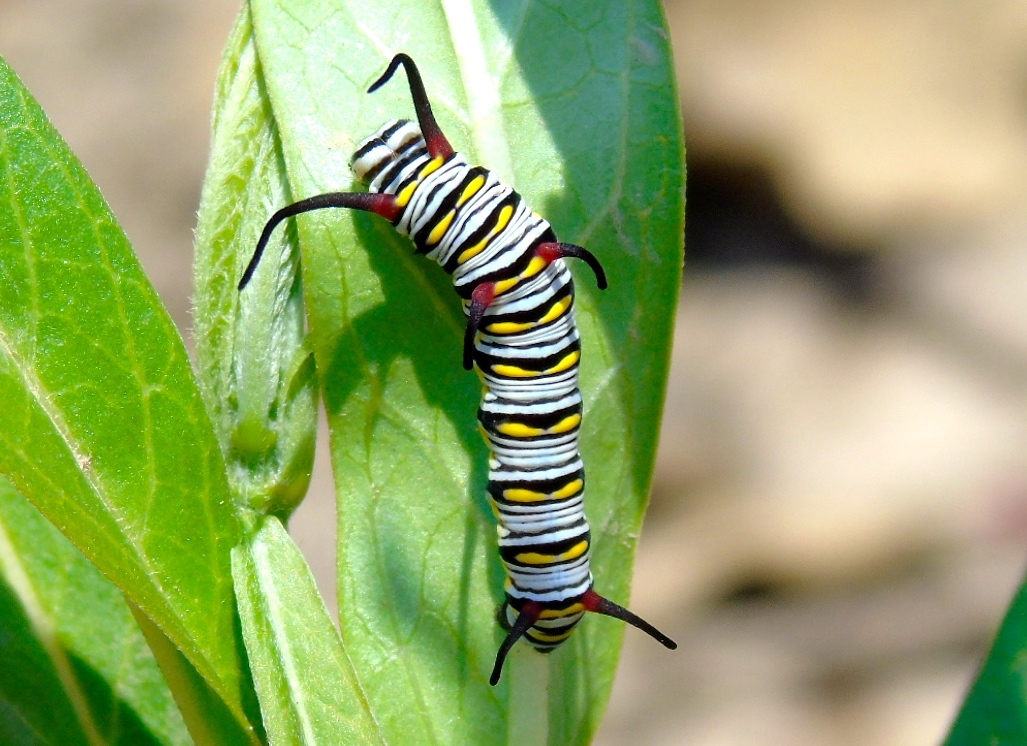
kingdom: Animalia
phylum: Arthropoda
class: Insecta
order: Lepidoptera
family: Nymphalidae
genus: Danaus
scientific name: Danaus gilippus
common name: Queen
